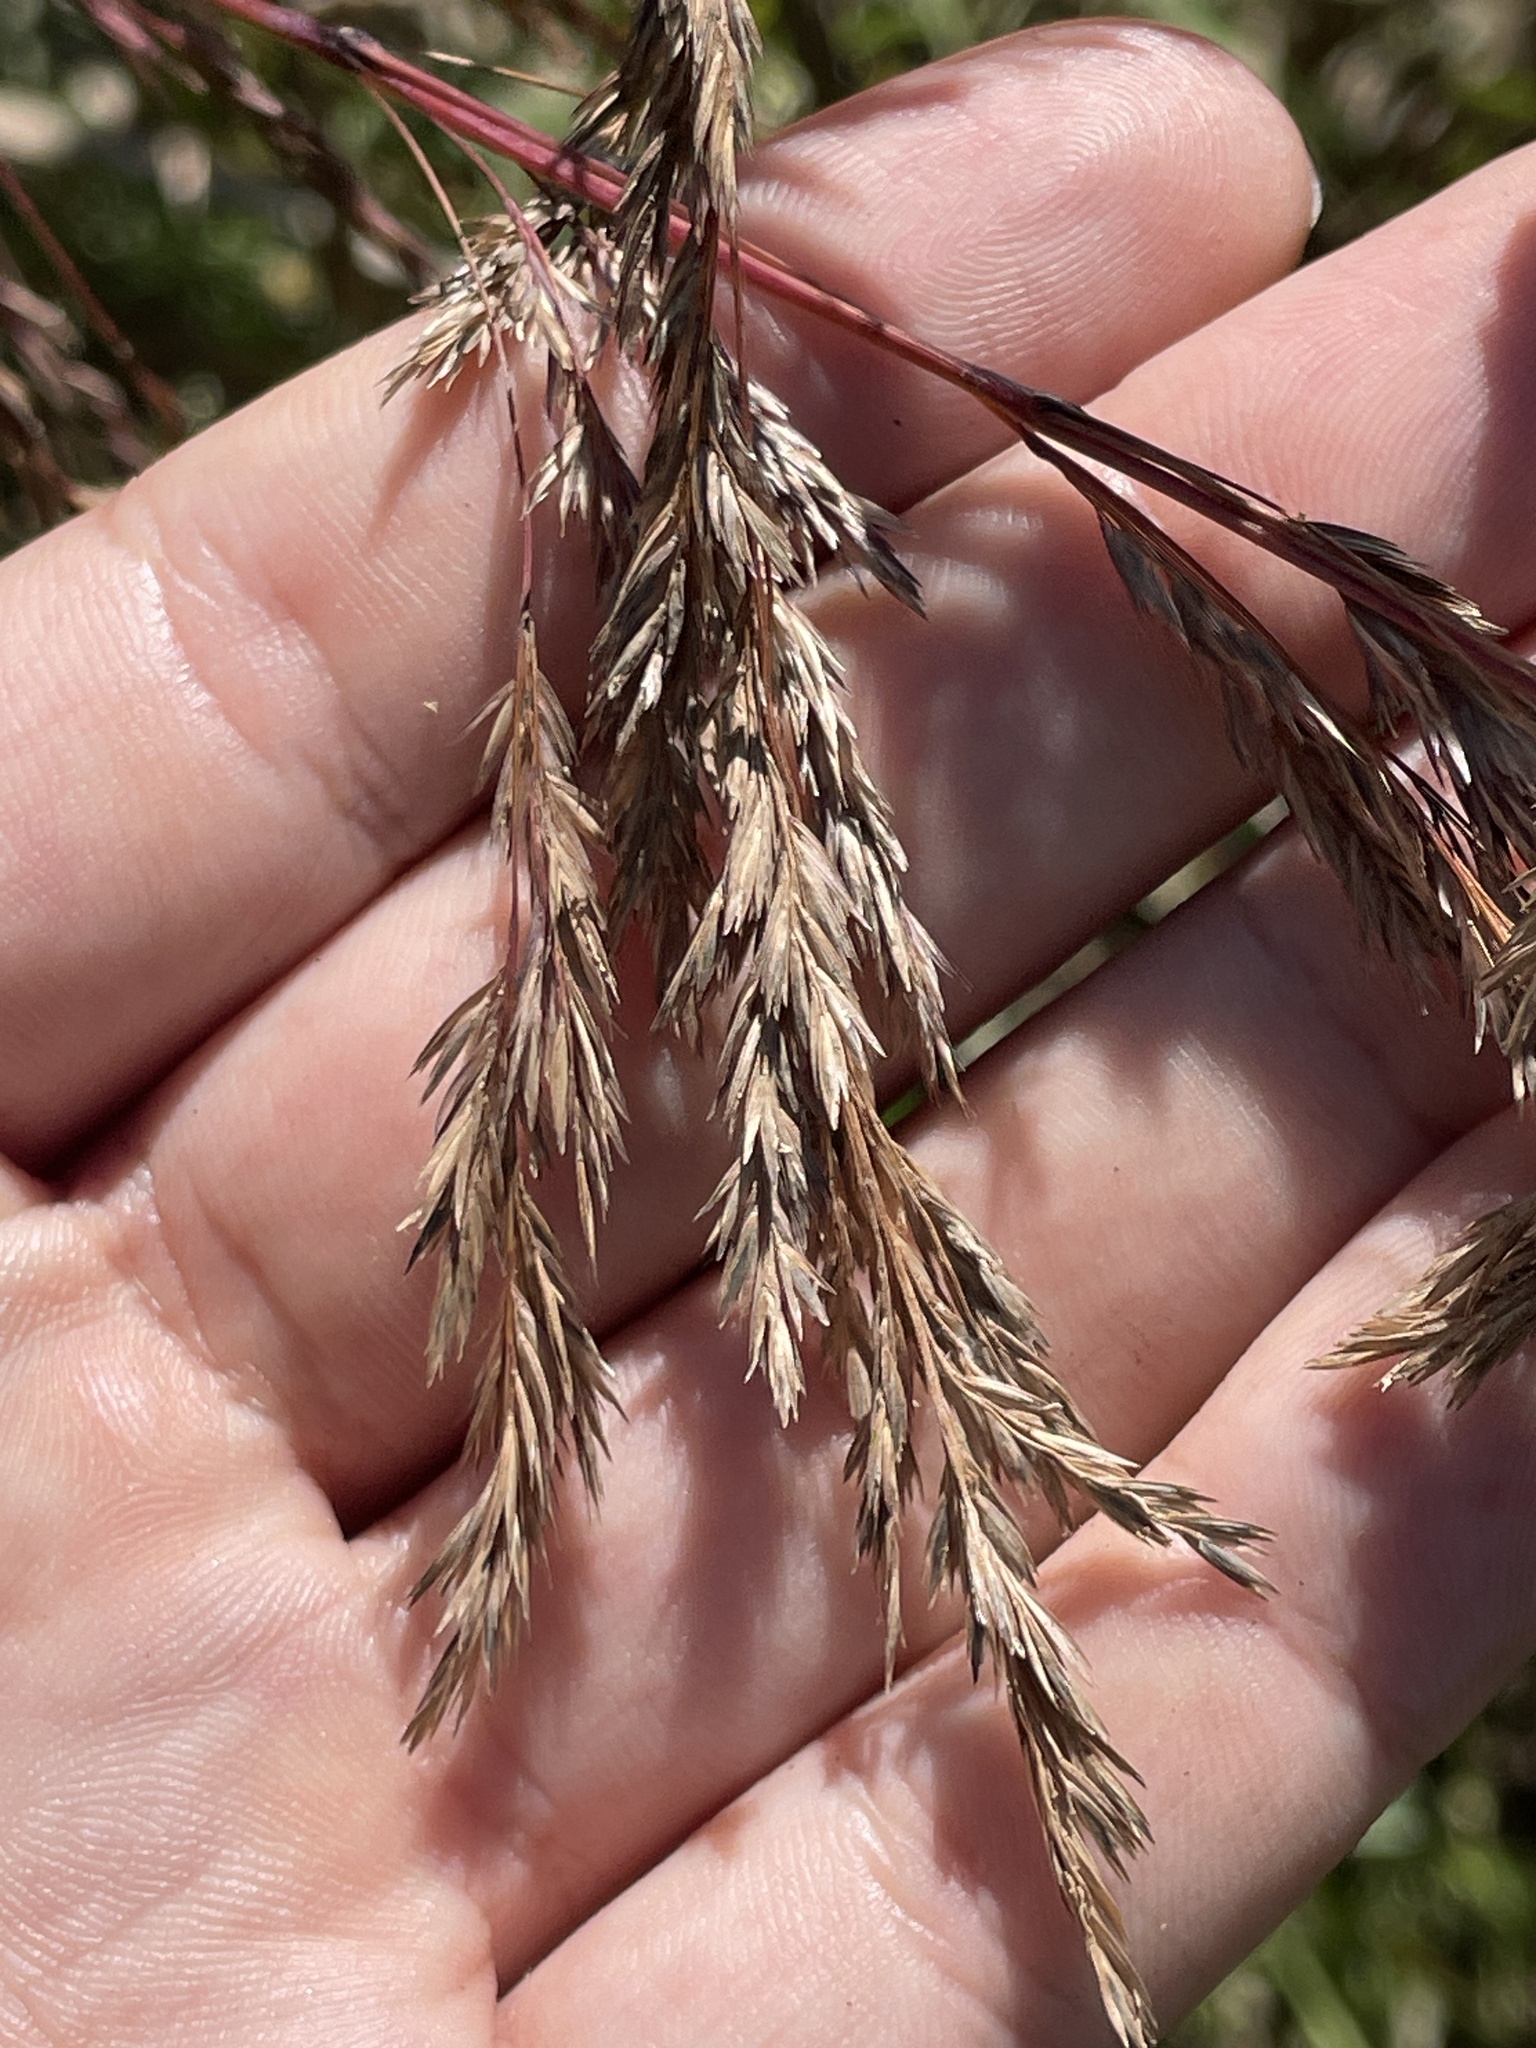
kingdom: Plantae
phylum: Tracheophyta
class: Liliopsida
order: Poales
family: Poaceae
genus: Cinna
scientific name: Cinna arundinacea
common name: Stout woodreed
